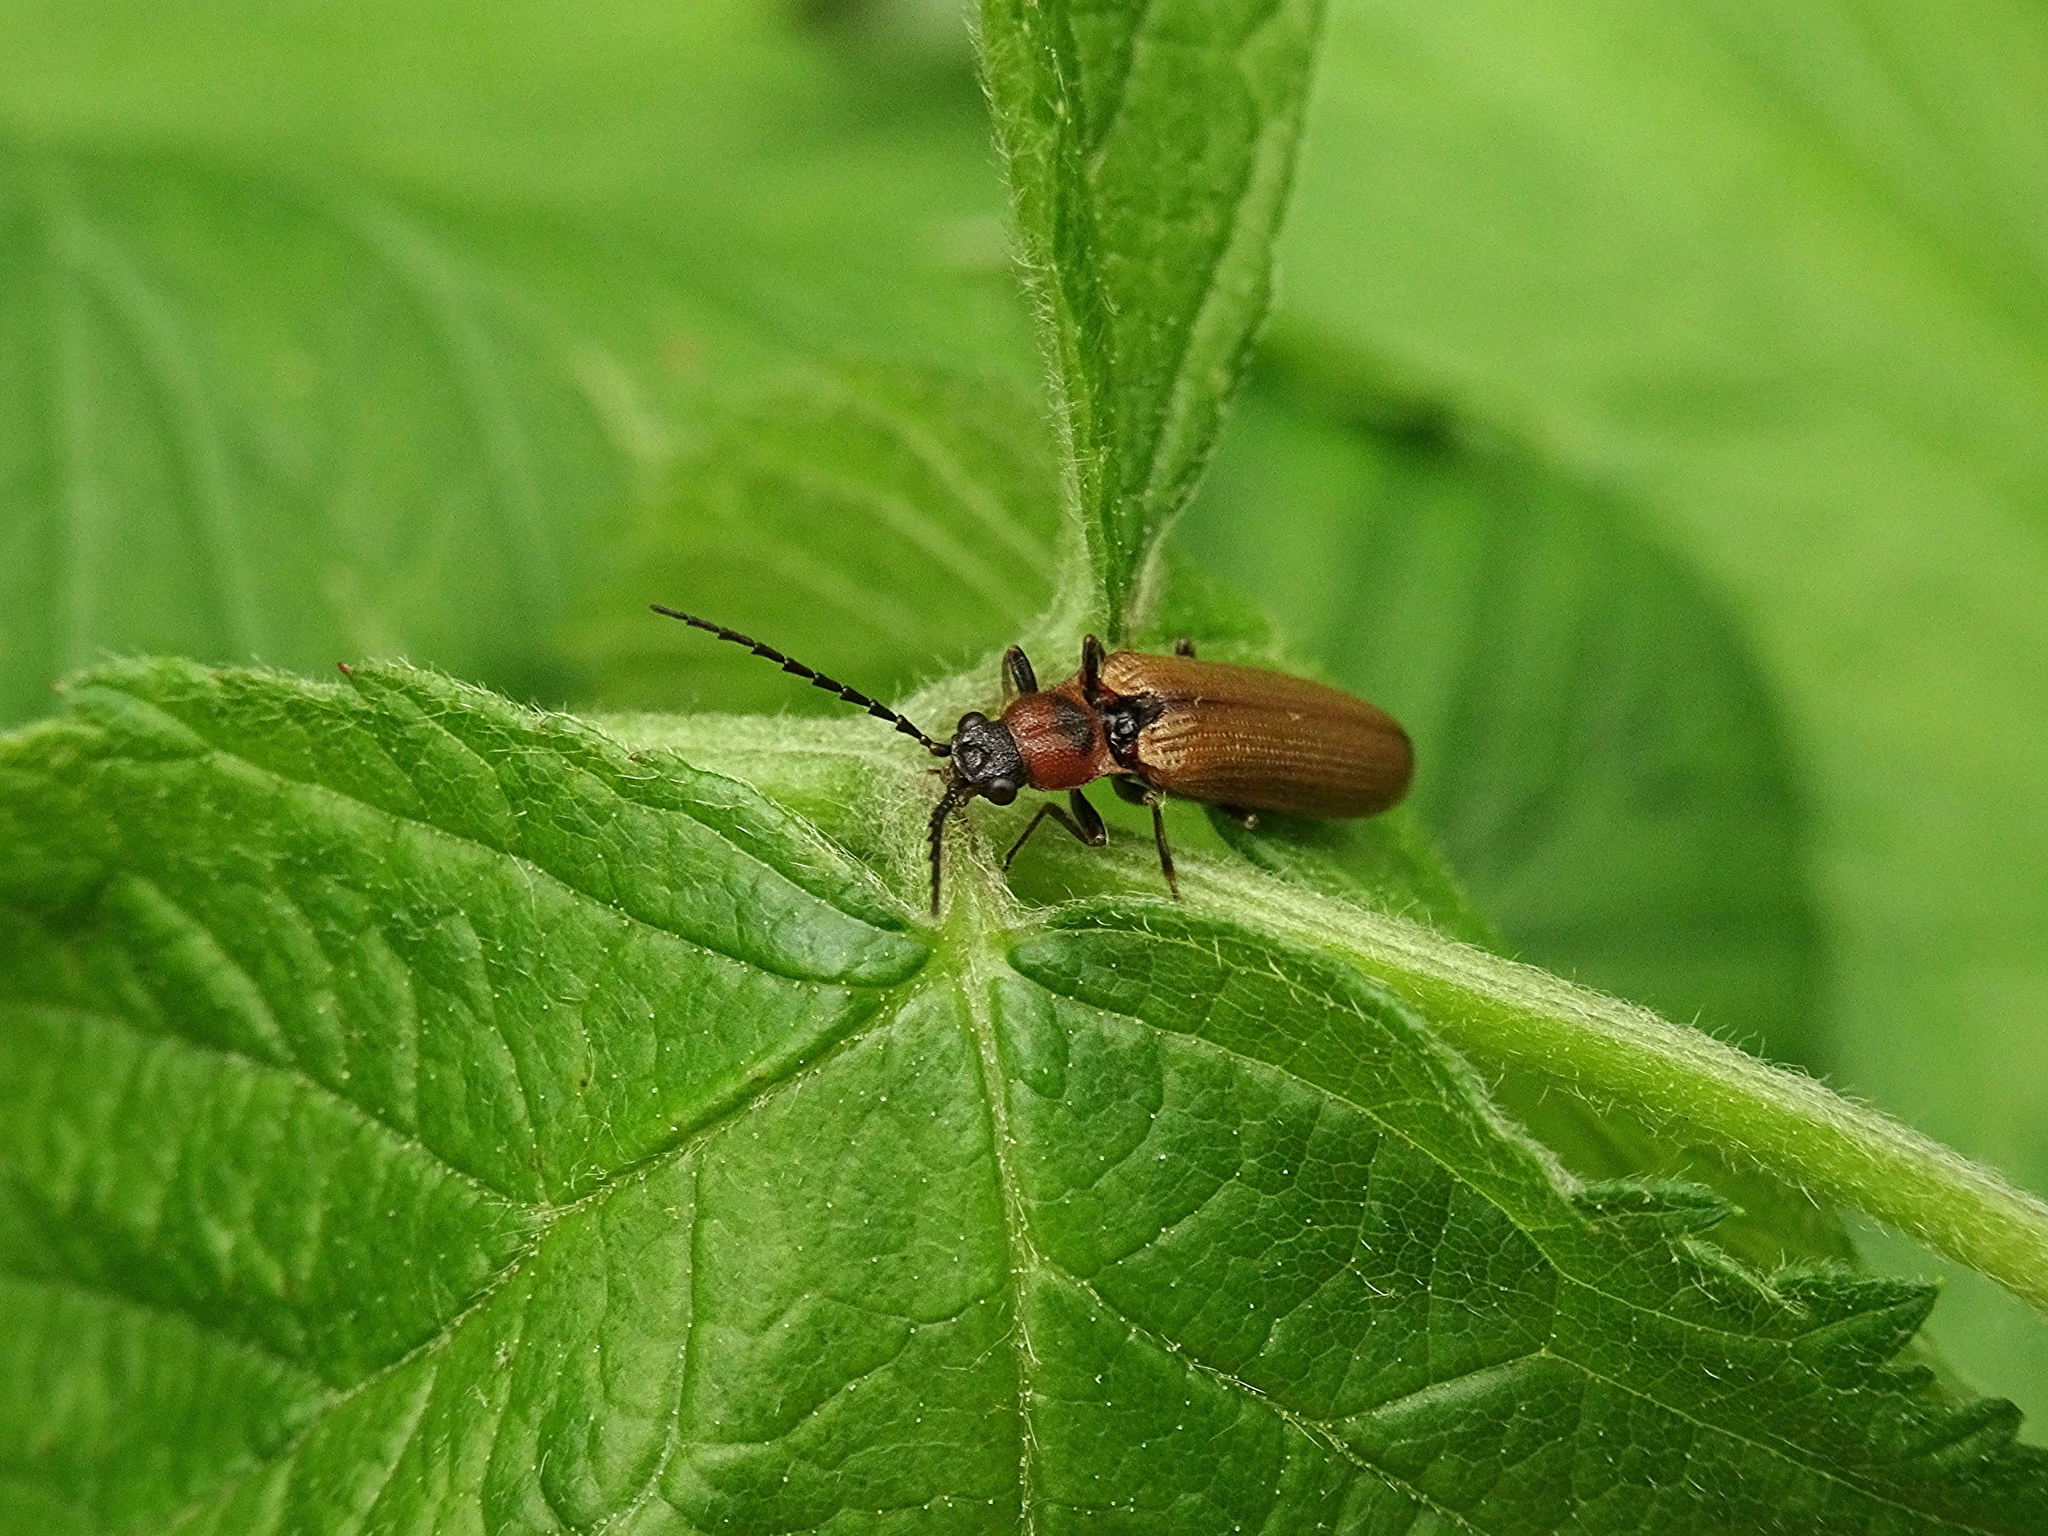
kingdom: Animalia
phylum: Arthropoda
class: Insecta
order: Coleoptera
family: Elateridae
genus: Denticollis
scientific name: Denticollis linearis
